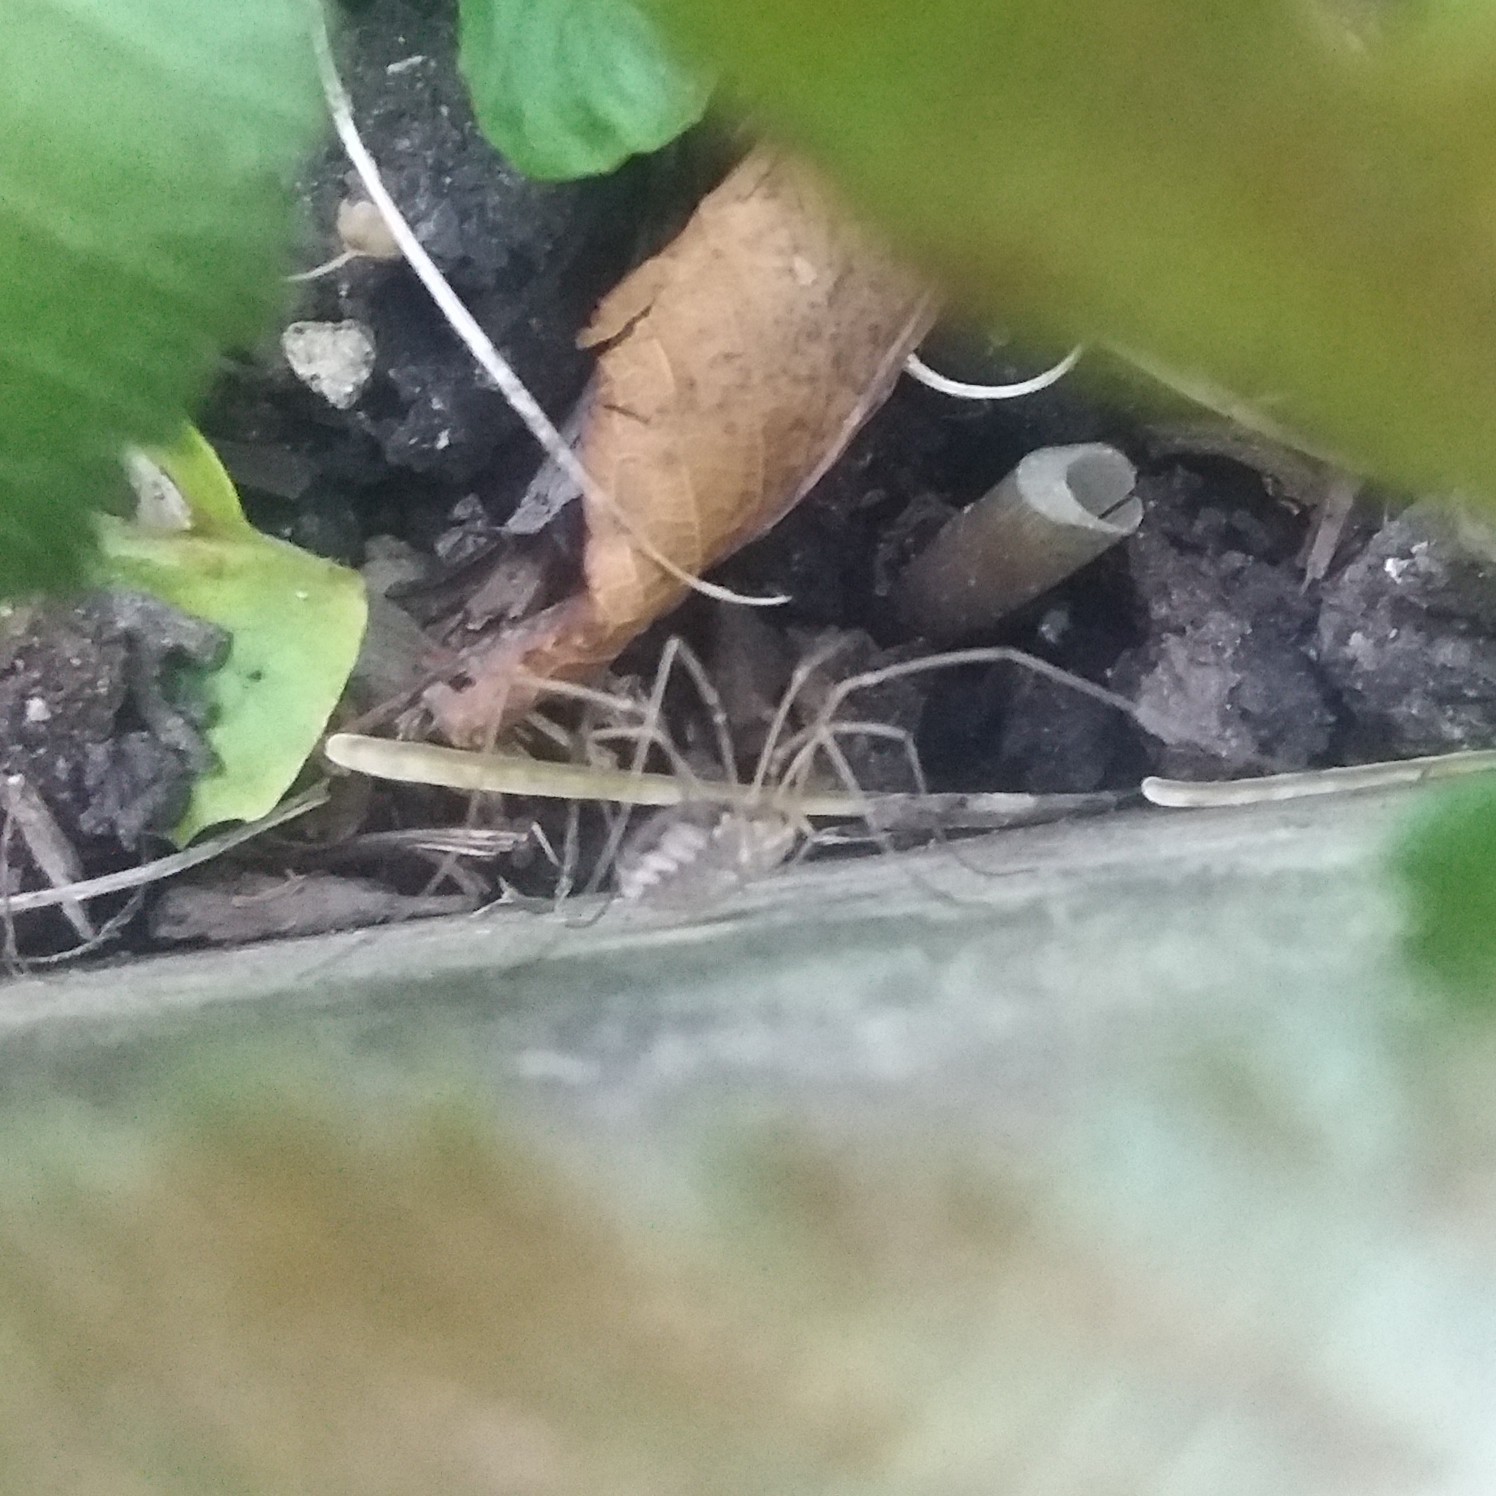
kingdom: Animalia
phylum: Arthropoda
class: Arachnida
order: Opiliones
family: Phalangiidae
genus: Phalangium
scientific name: Phalangium opilio
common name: Daddy longleg
